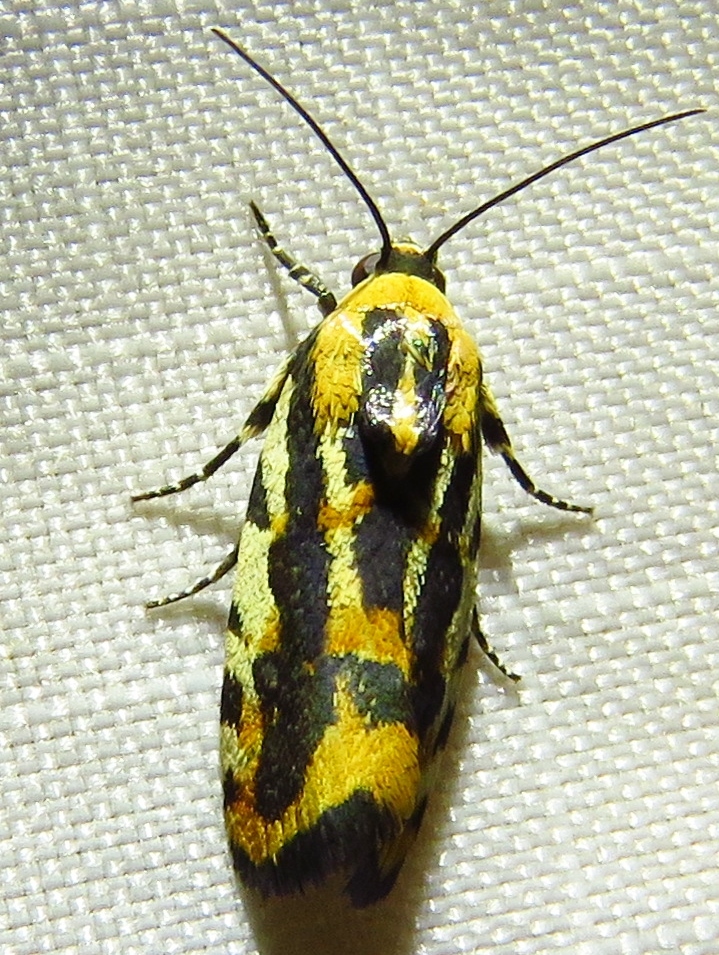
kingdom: Animalia
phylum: Arthropoda
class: Insecta
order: Lepidoptera
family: Noctuidae
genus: Acontia
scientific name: Acontia leo
